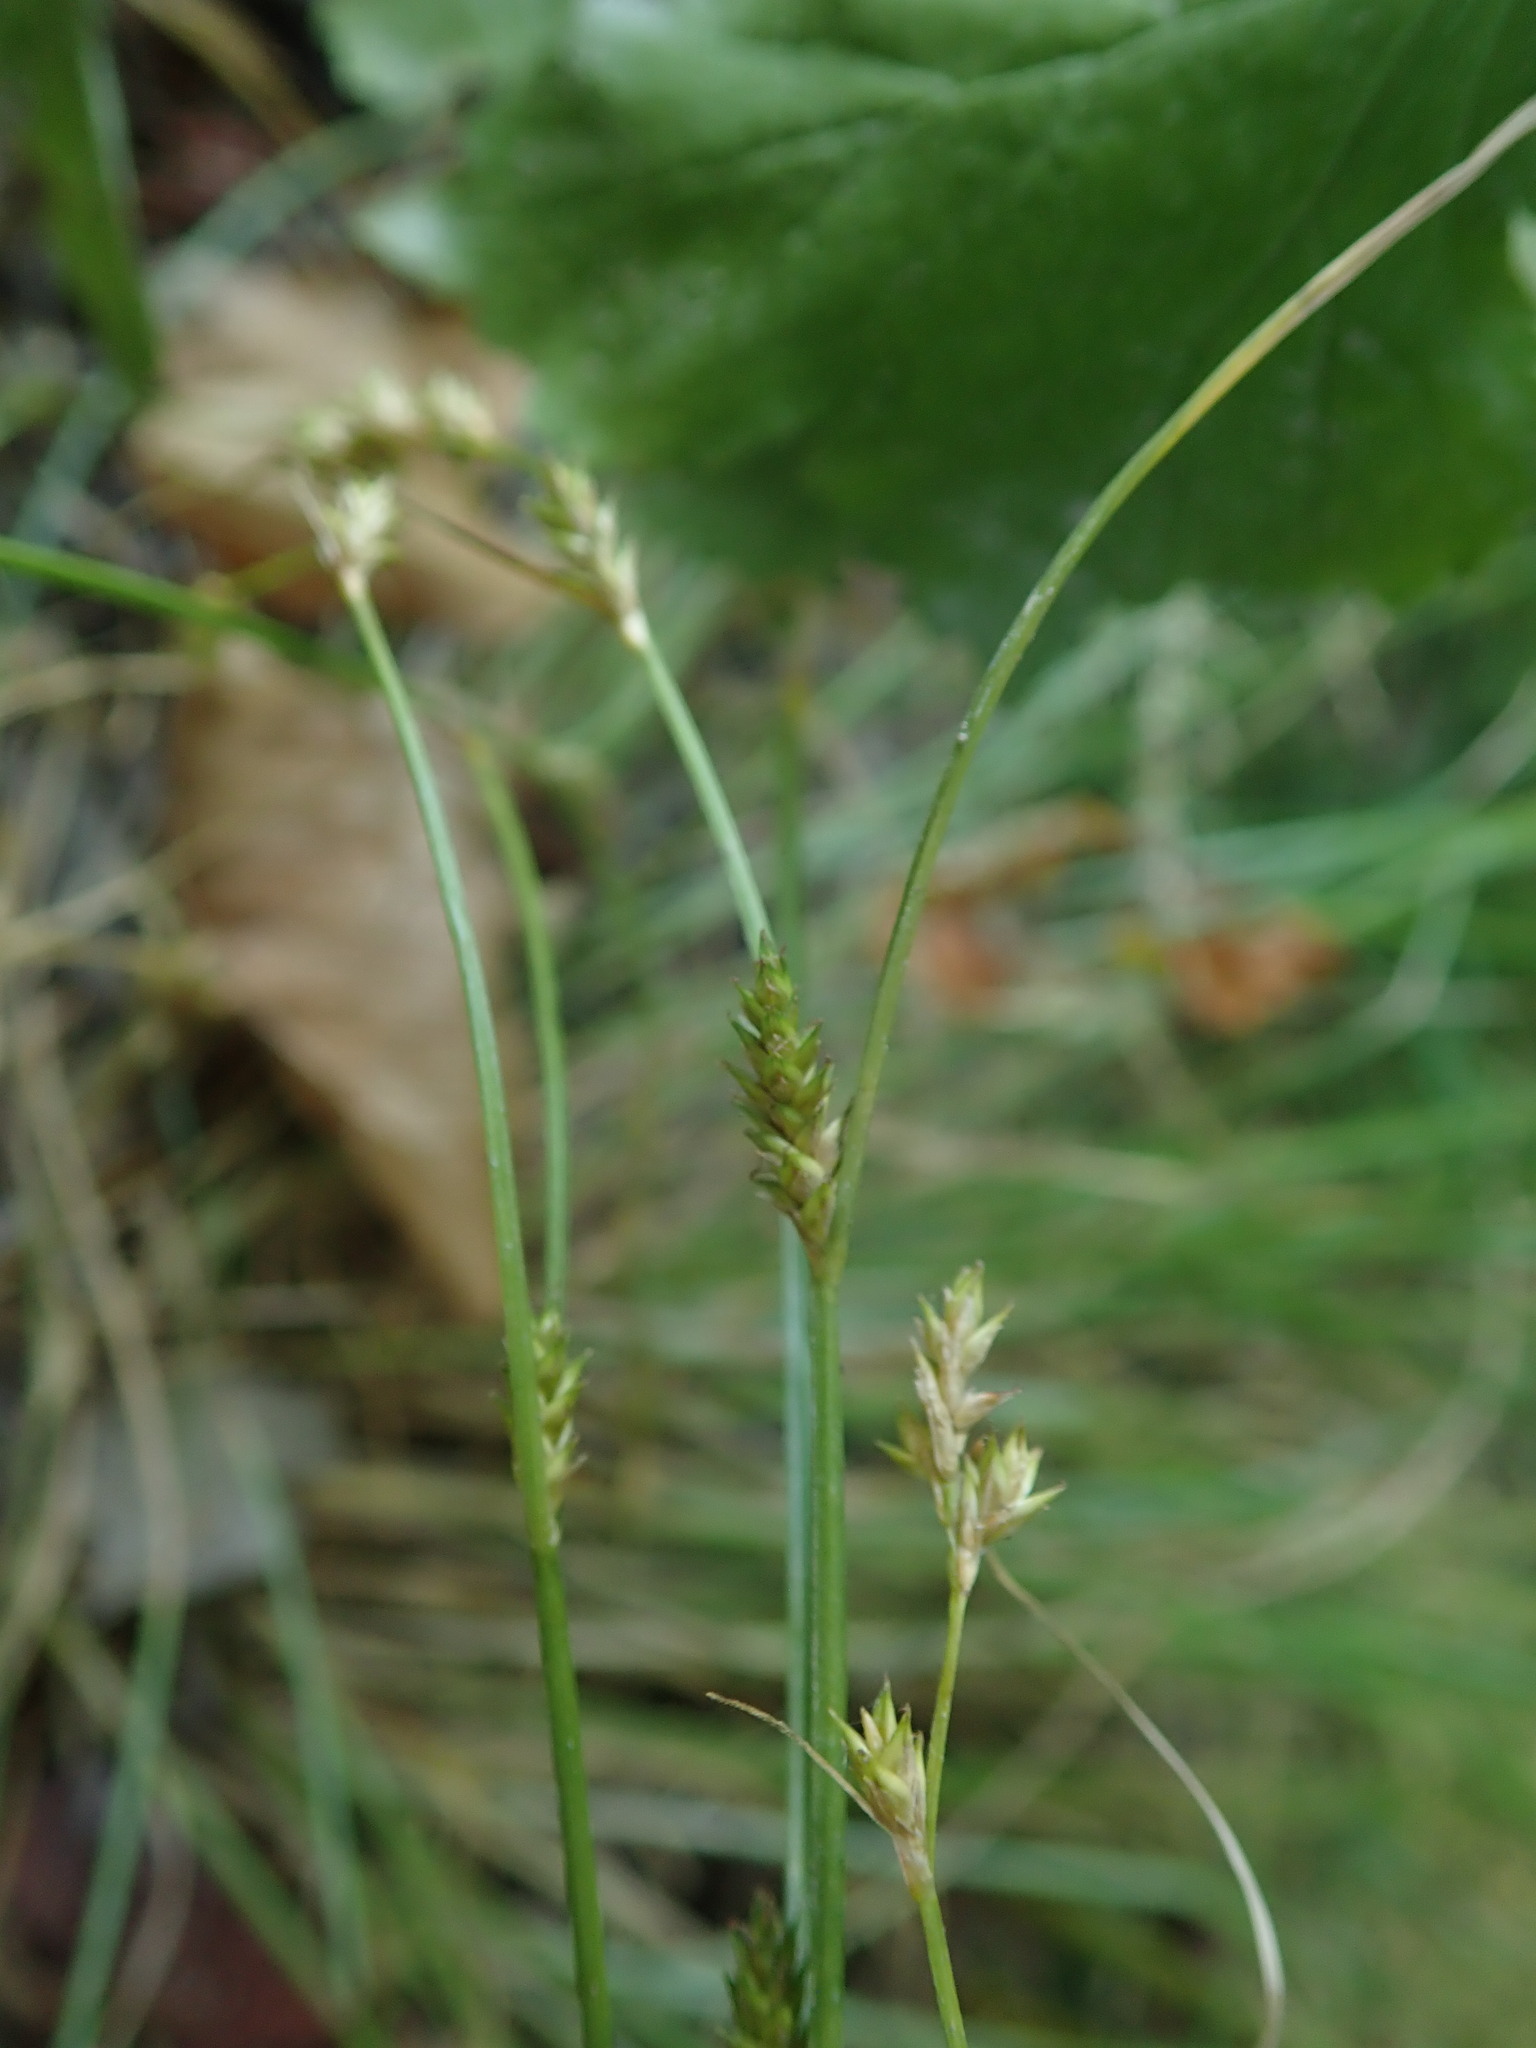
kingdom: Plantae
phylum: Tracheophyta
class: Liliopsida
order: Poales
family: Cyperaceae
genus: Carex
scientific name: Carex remota
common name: Remote sedge
